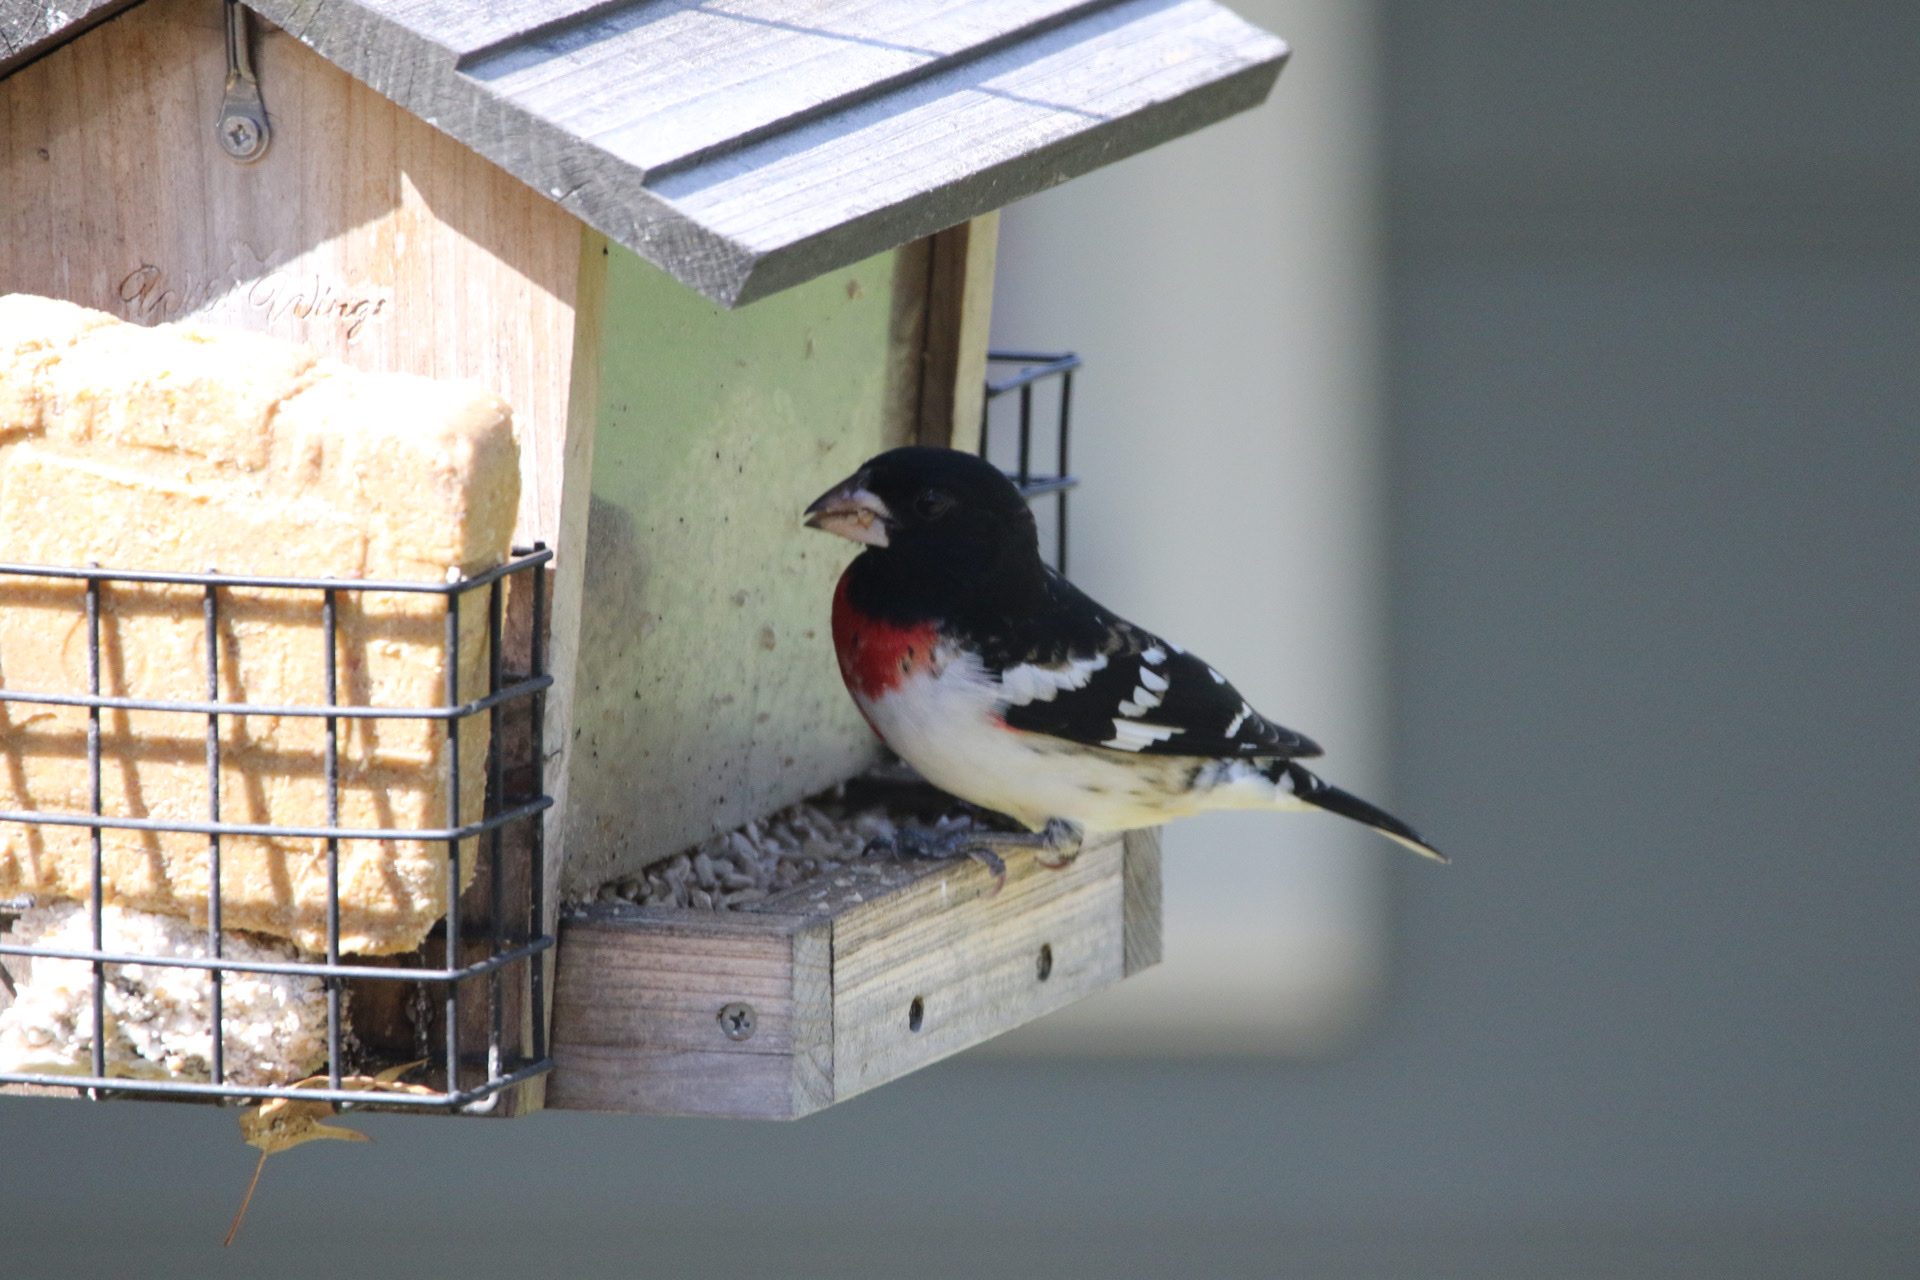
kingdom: Animalia
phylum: Chordata
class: Aves
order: Passeriformes
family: Cardinalidae
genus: Pheucticus
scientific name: Pheucticus ludovicianus
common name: Rose-breasted grosbeak
